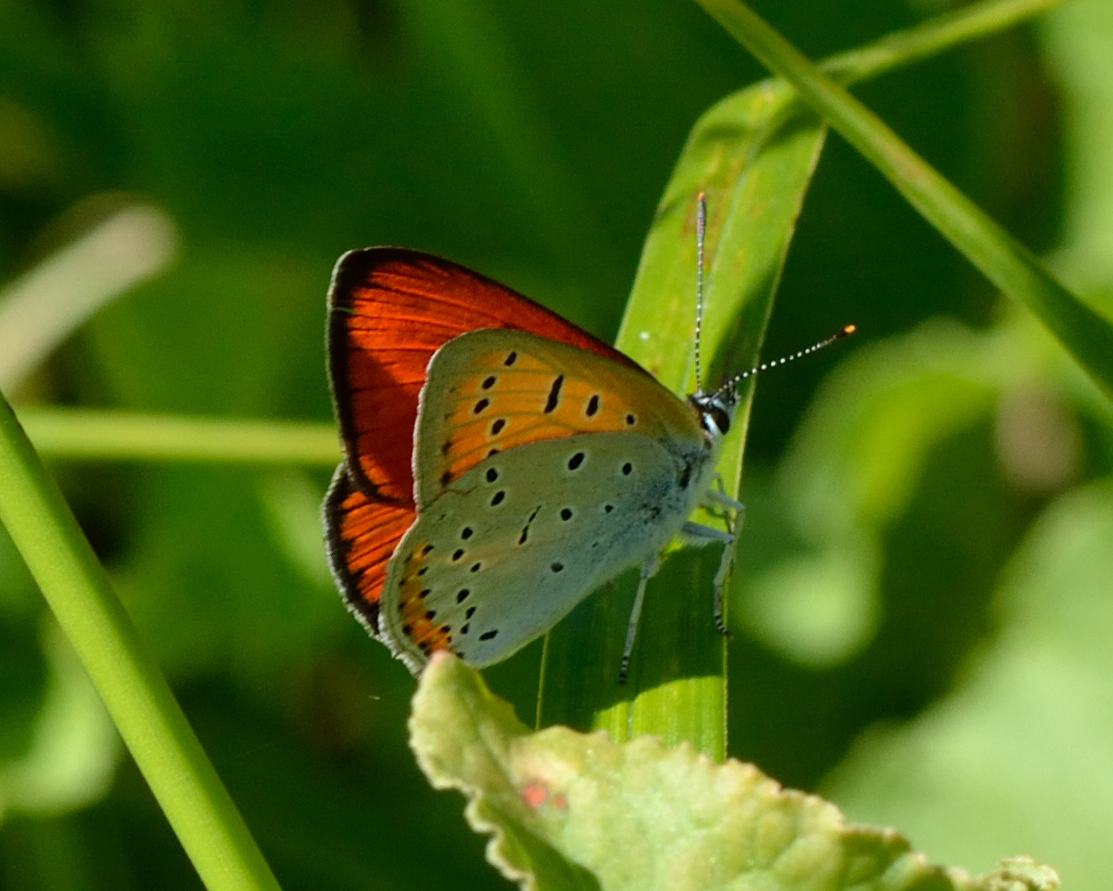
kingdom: Animalia
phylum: Arthropoda
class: Insecta
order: Lepidoptera
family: Lycaenidae
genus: Lycaena
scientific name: Lycaena dispar
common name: Large copper
